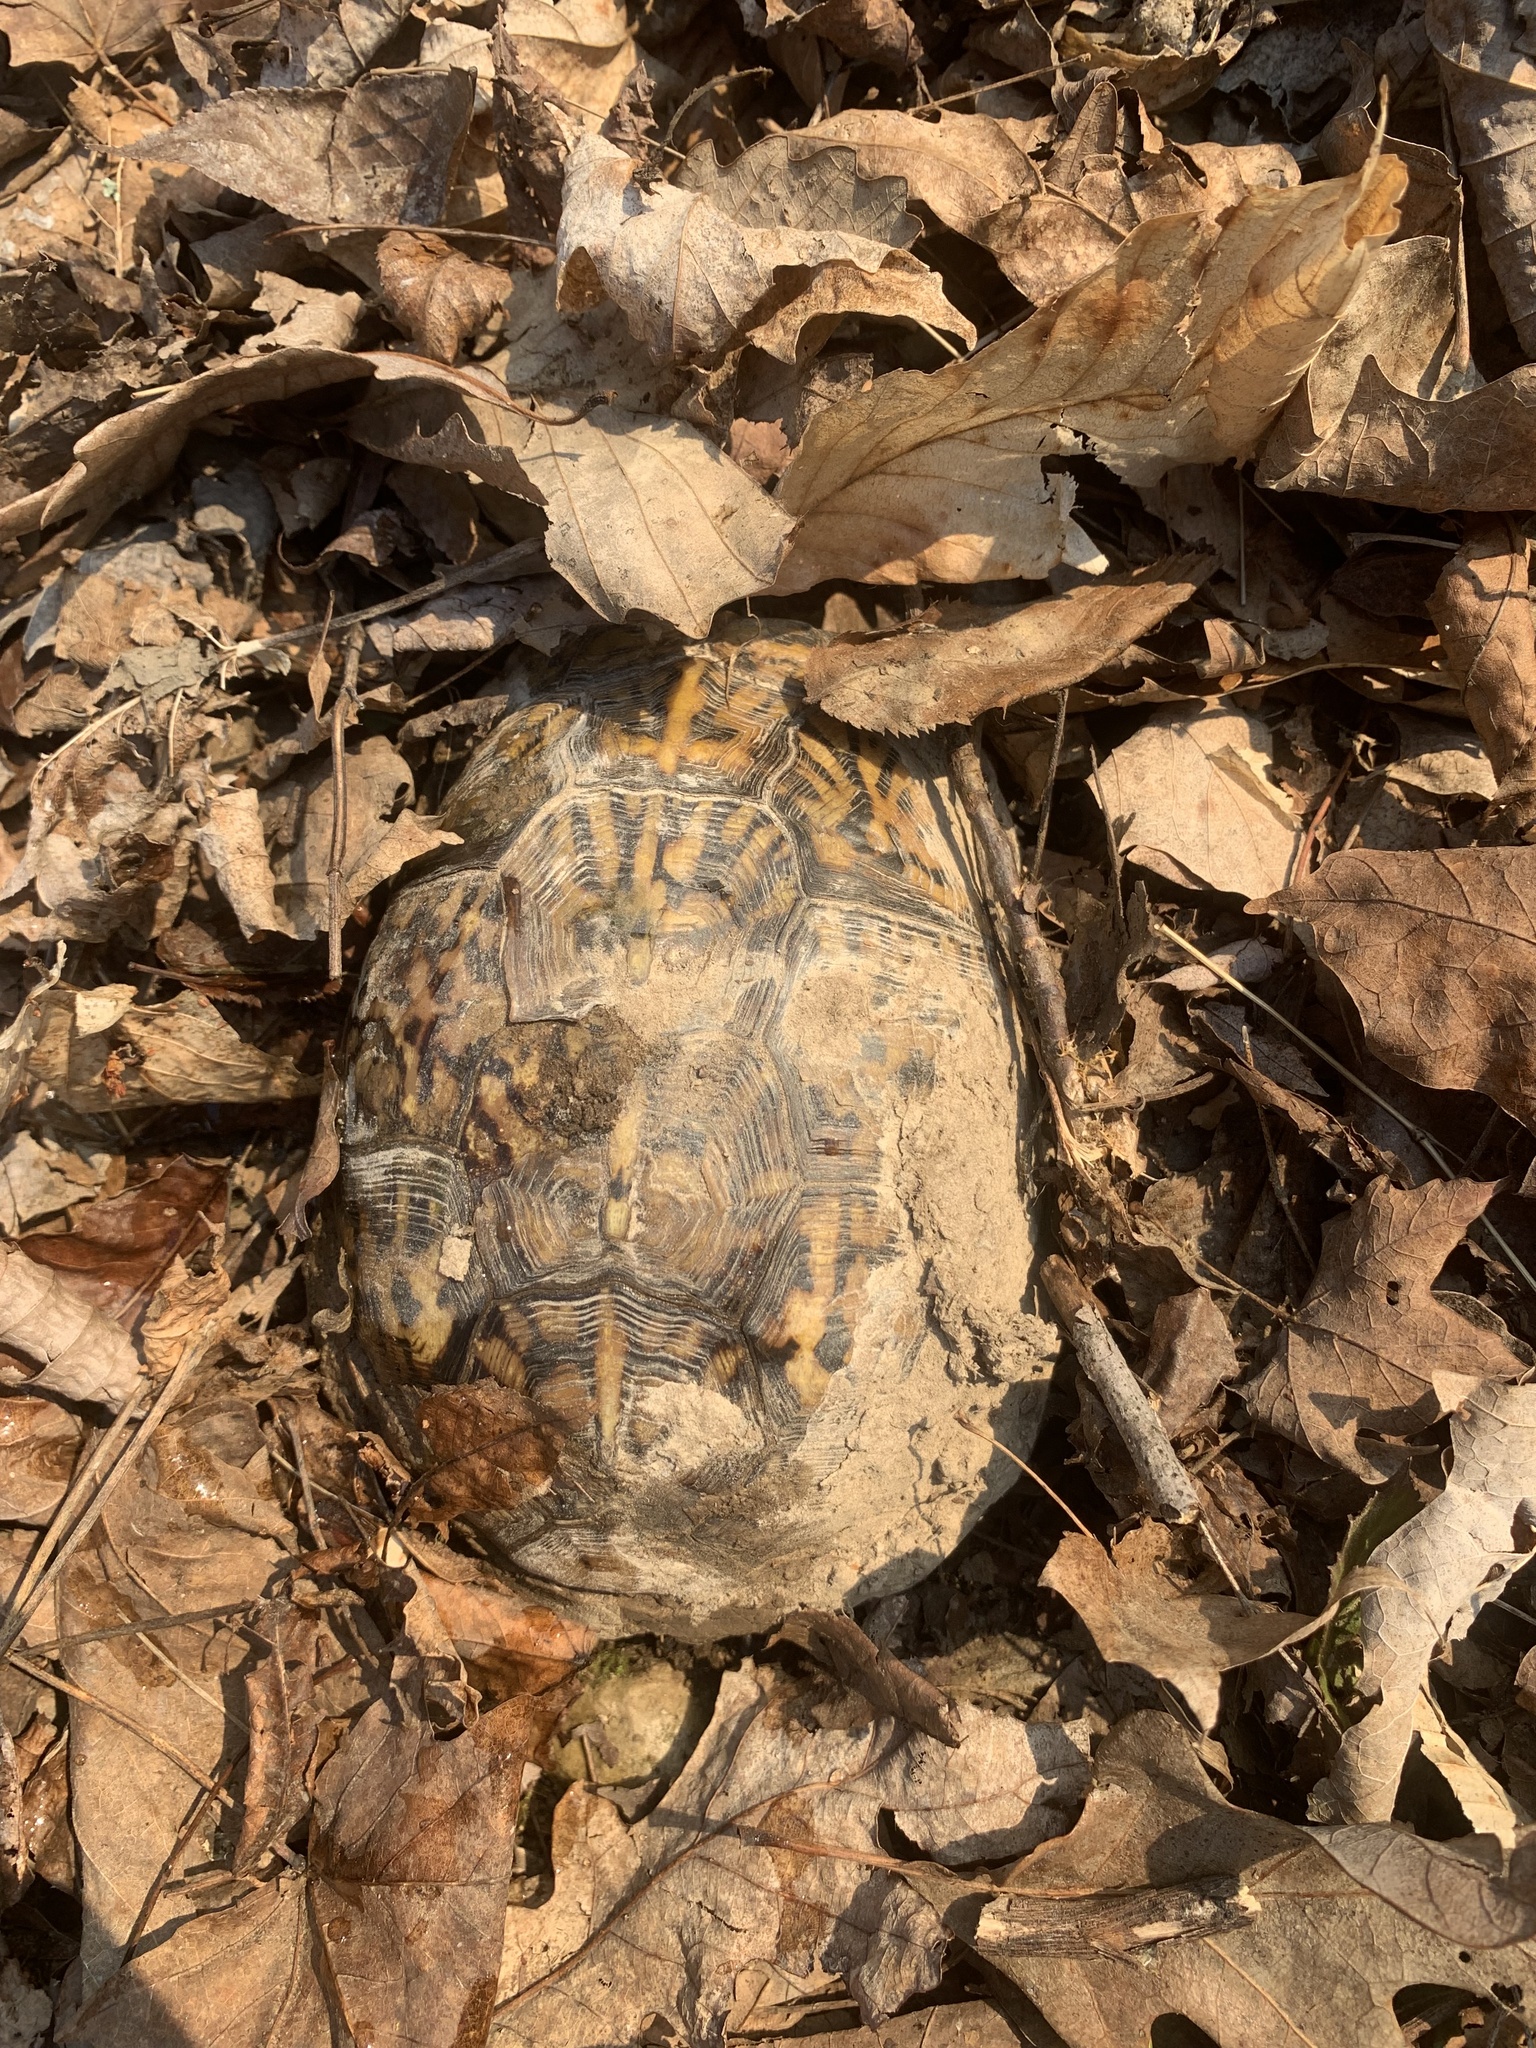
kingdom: Animalia
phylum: Chordata
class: Testudines
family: Emydidae
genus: Terrapene
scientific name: Terrapene carolina
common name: Common box turtle
